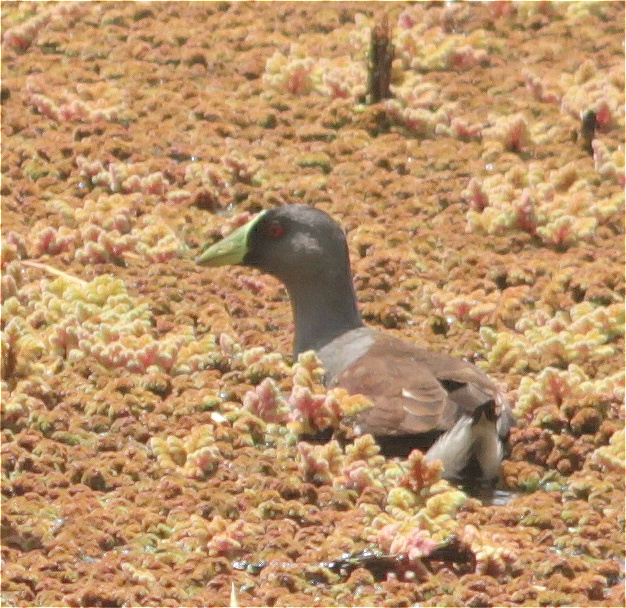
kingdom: Animalia
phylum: Chordata
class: Aves
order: Gruiformes
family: Rallidae
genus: Gallinula
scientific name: Gallinula melanops
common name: Spot-flanked gallinule
